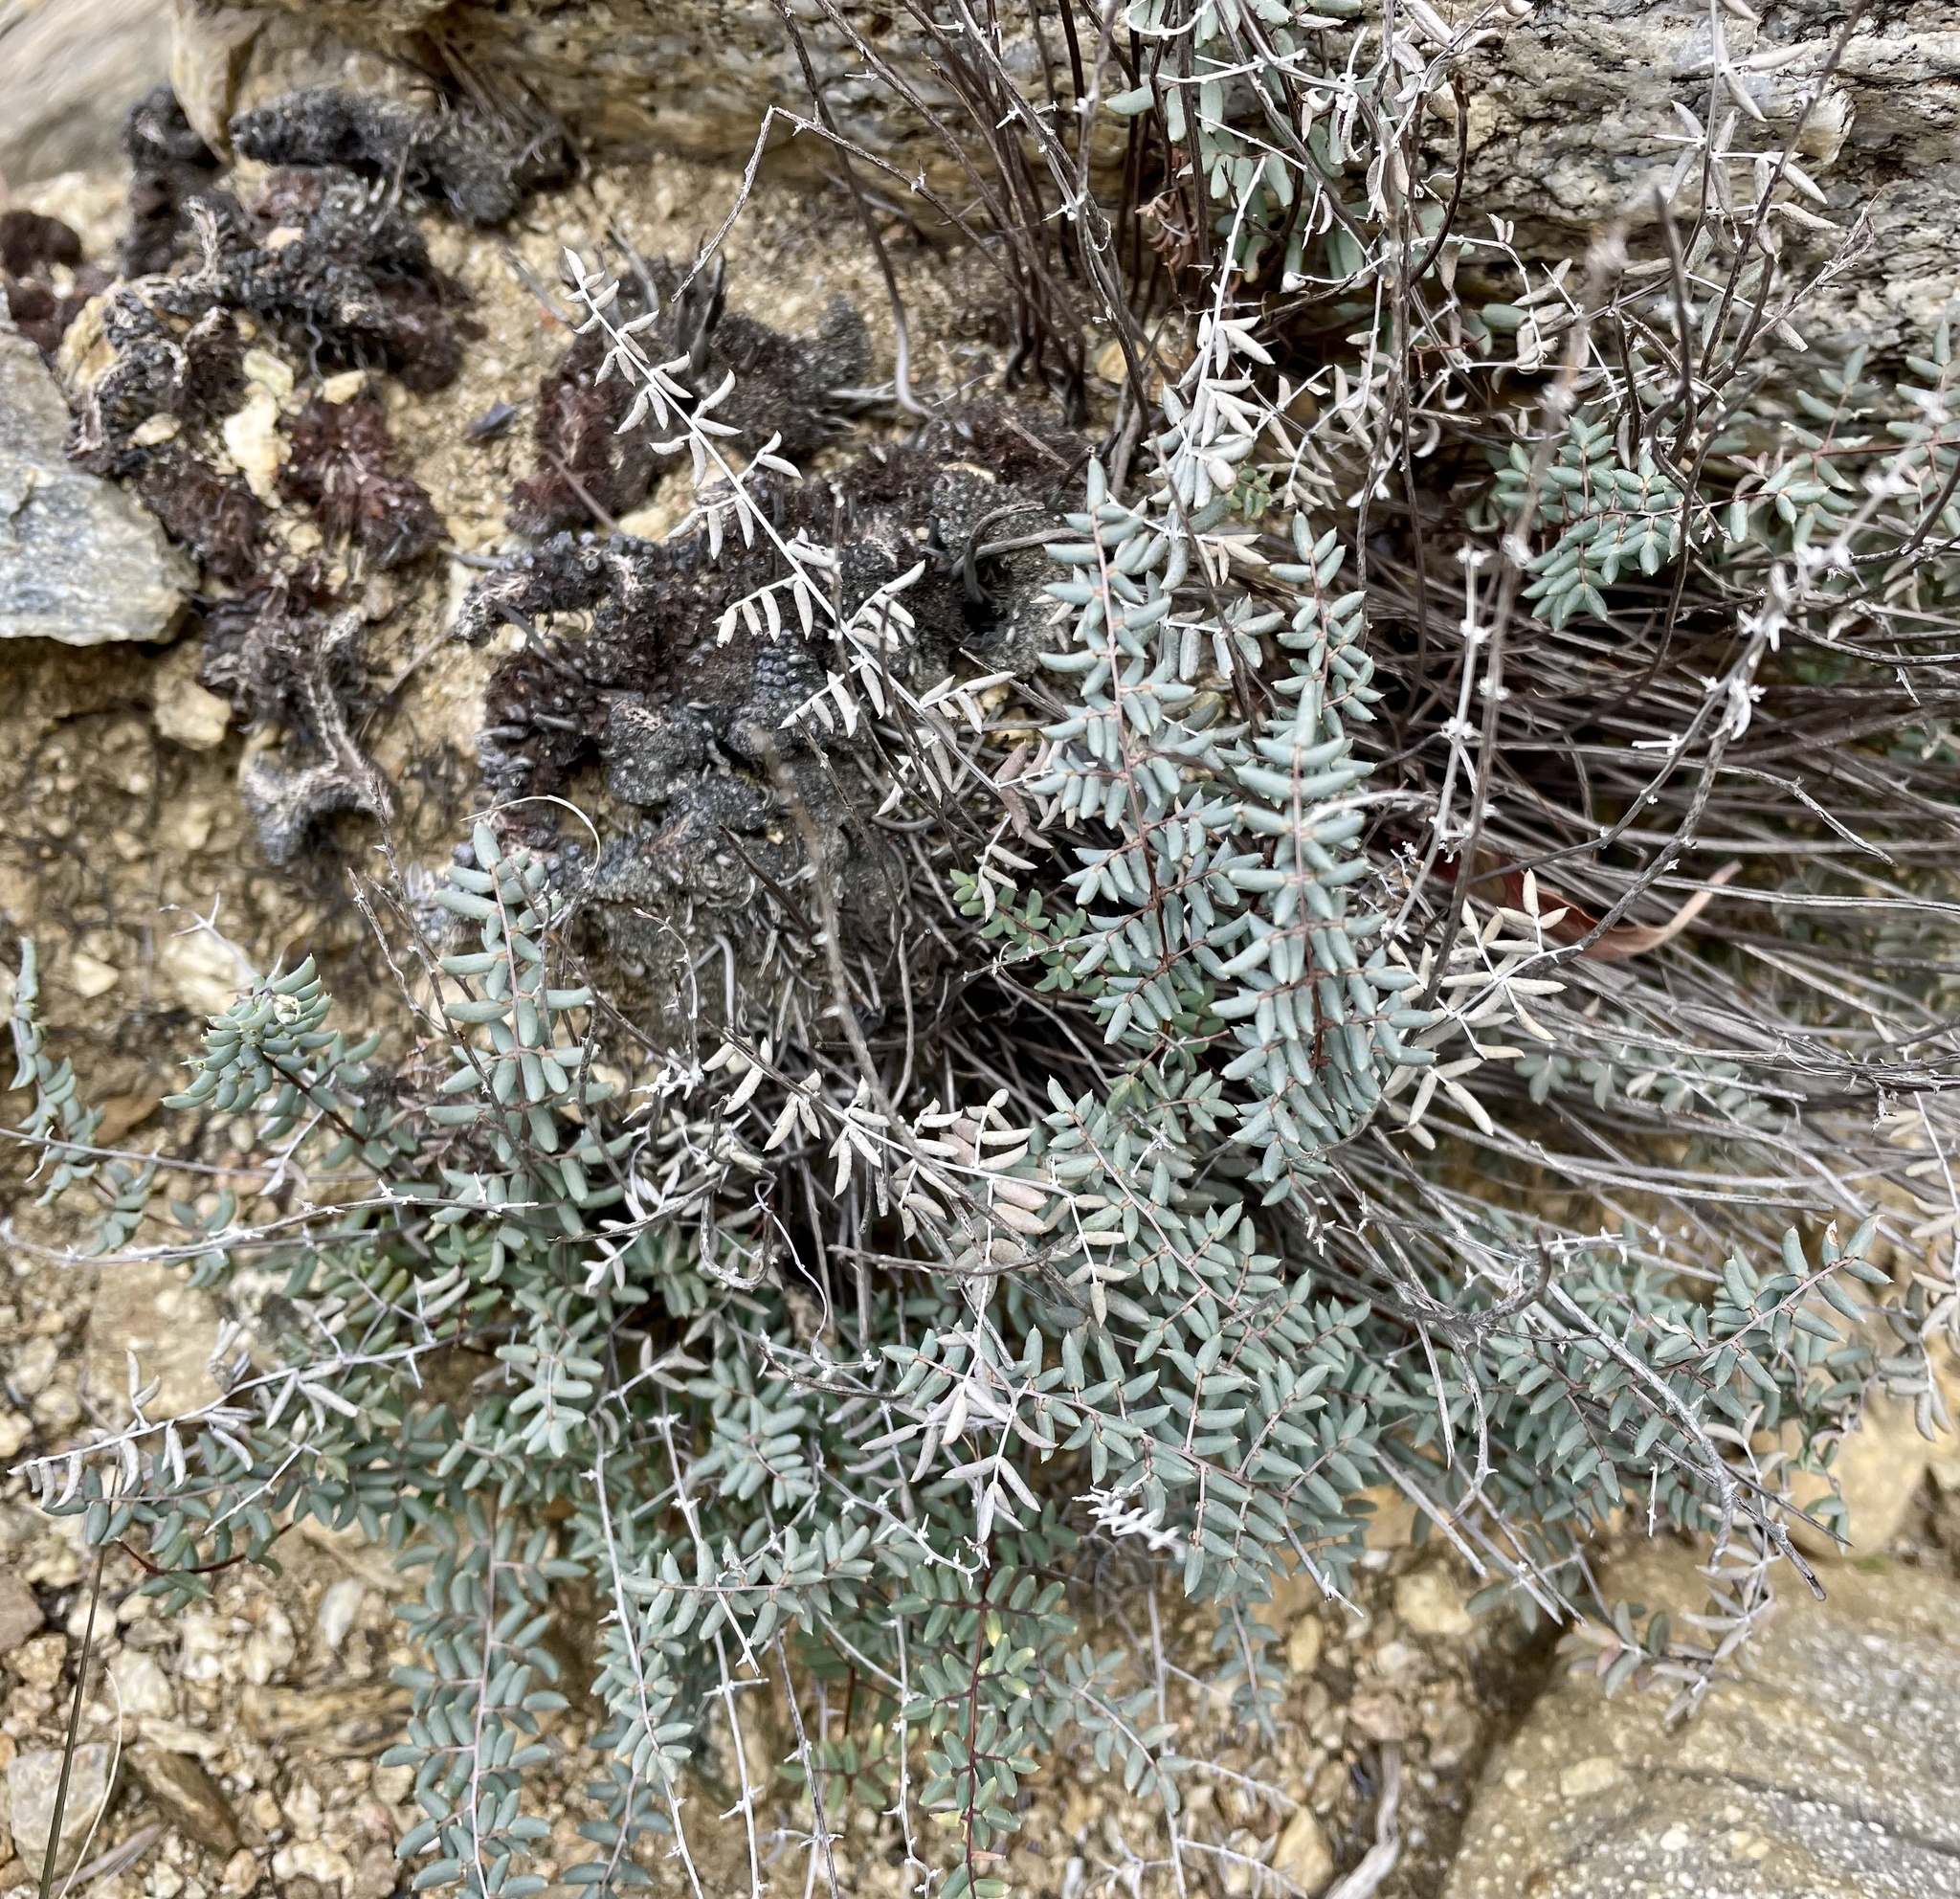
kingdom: Plantae
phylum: Tracheophyta
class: Polypodiopsida
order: Polypodiales
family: Pteridaceae
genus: Pellaea
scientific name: Pellaea mucronata
